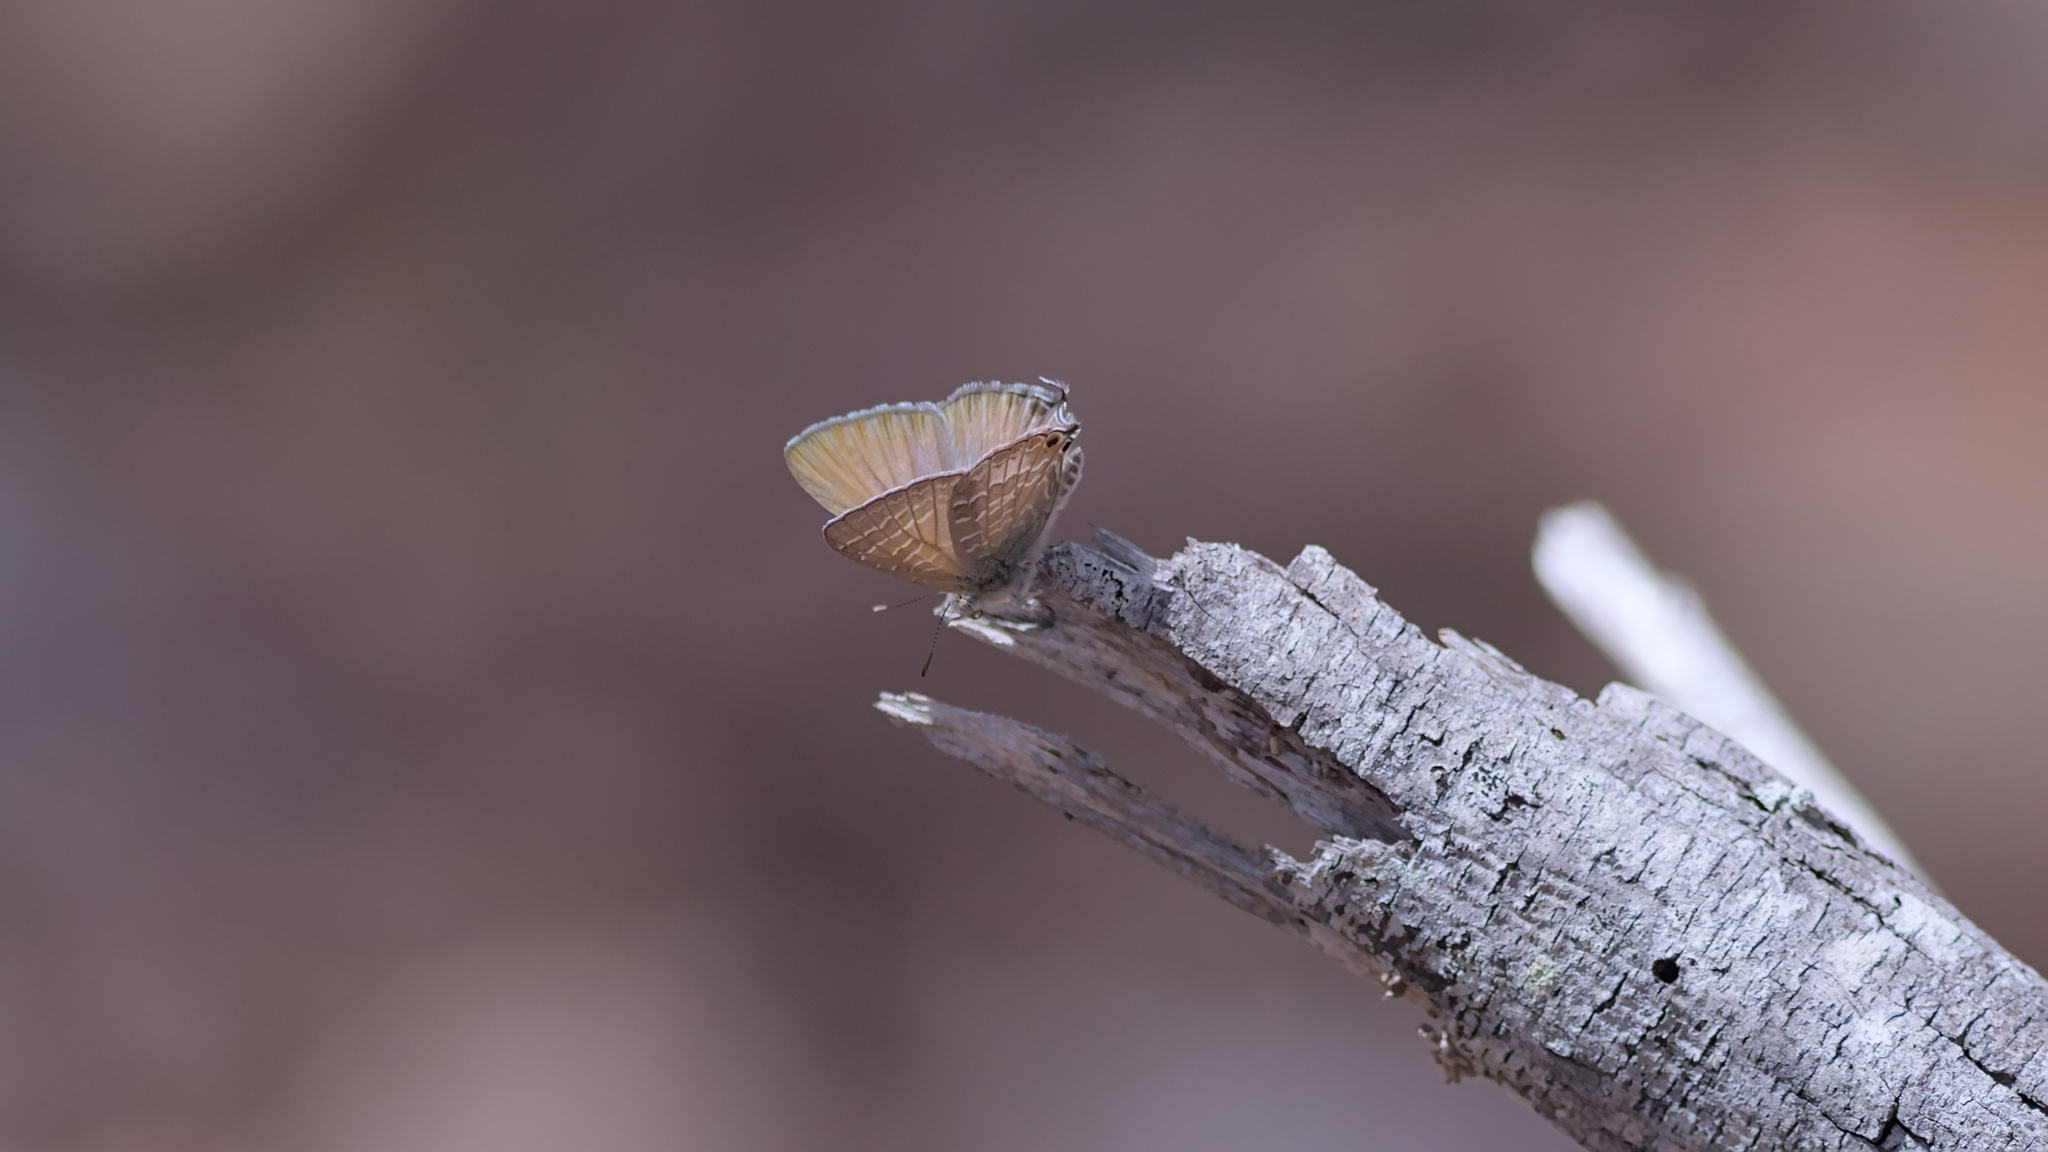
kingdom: Animalia
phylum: Arthropoda
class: Insecta
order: Lepidoptera
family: Lycaenidae
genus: Theclinesthes
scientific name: Theclinesthes miskini
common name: Wattle blue
